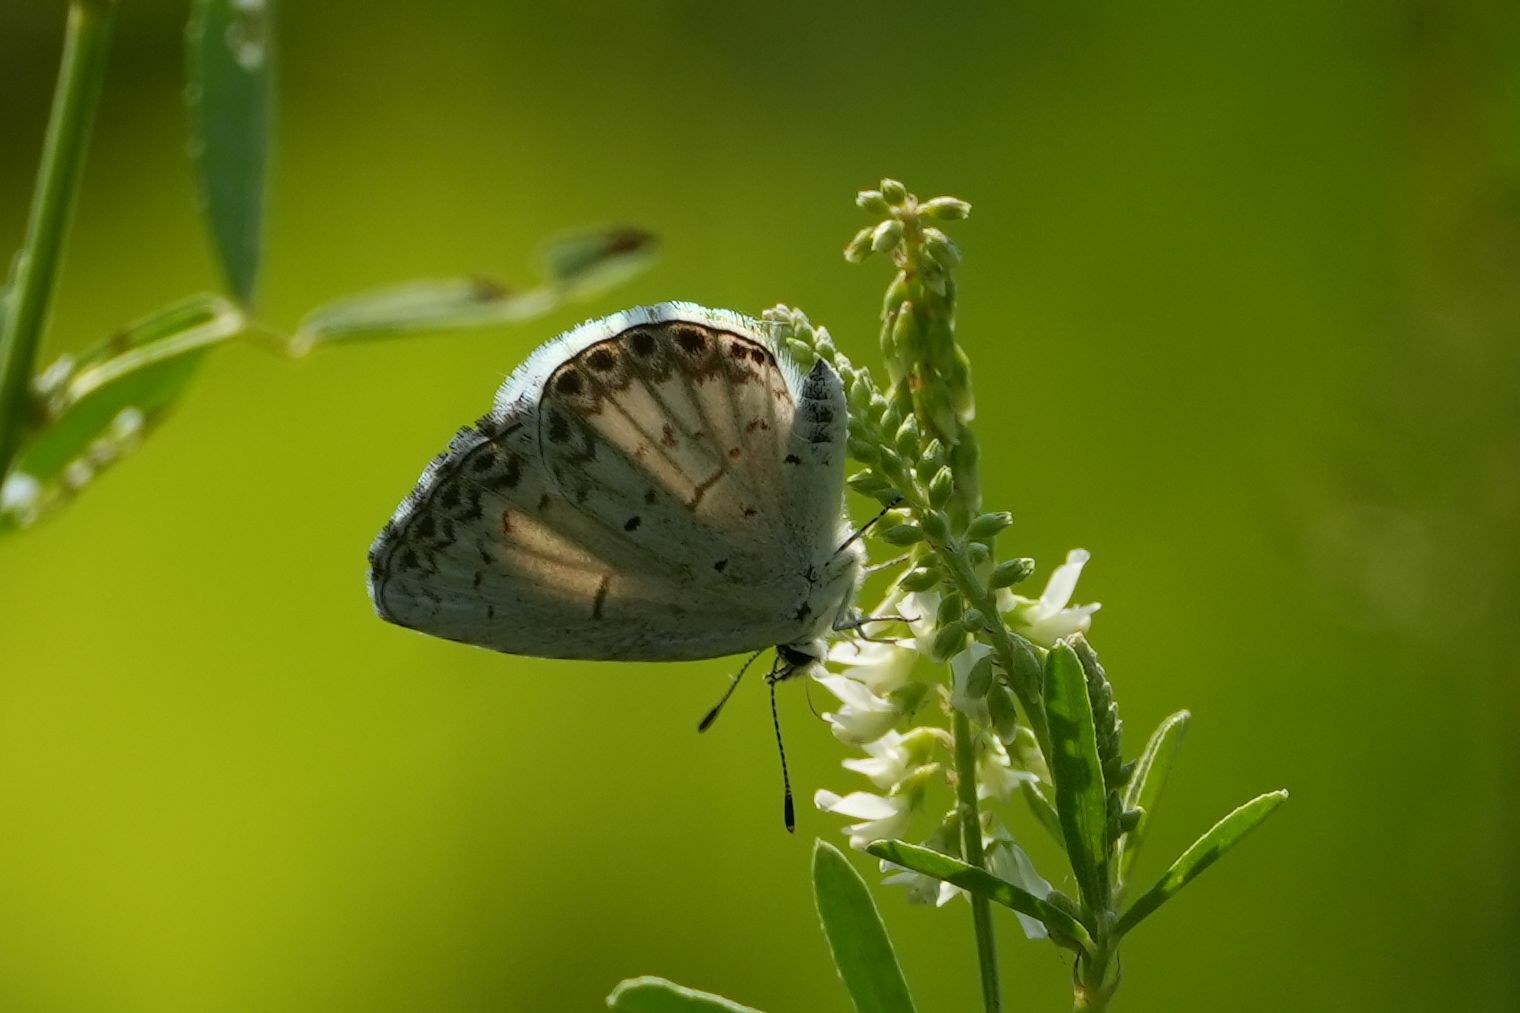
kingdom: Animalia
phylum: Arthropoda
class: Insecta
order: Lepidoptera
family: Lycaenidae
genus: Celastrina
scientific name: Celastrina lucia
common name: Lucia azure
